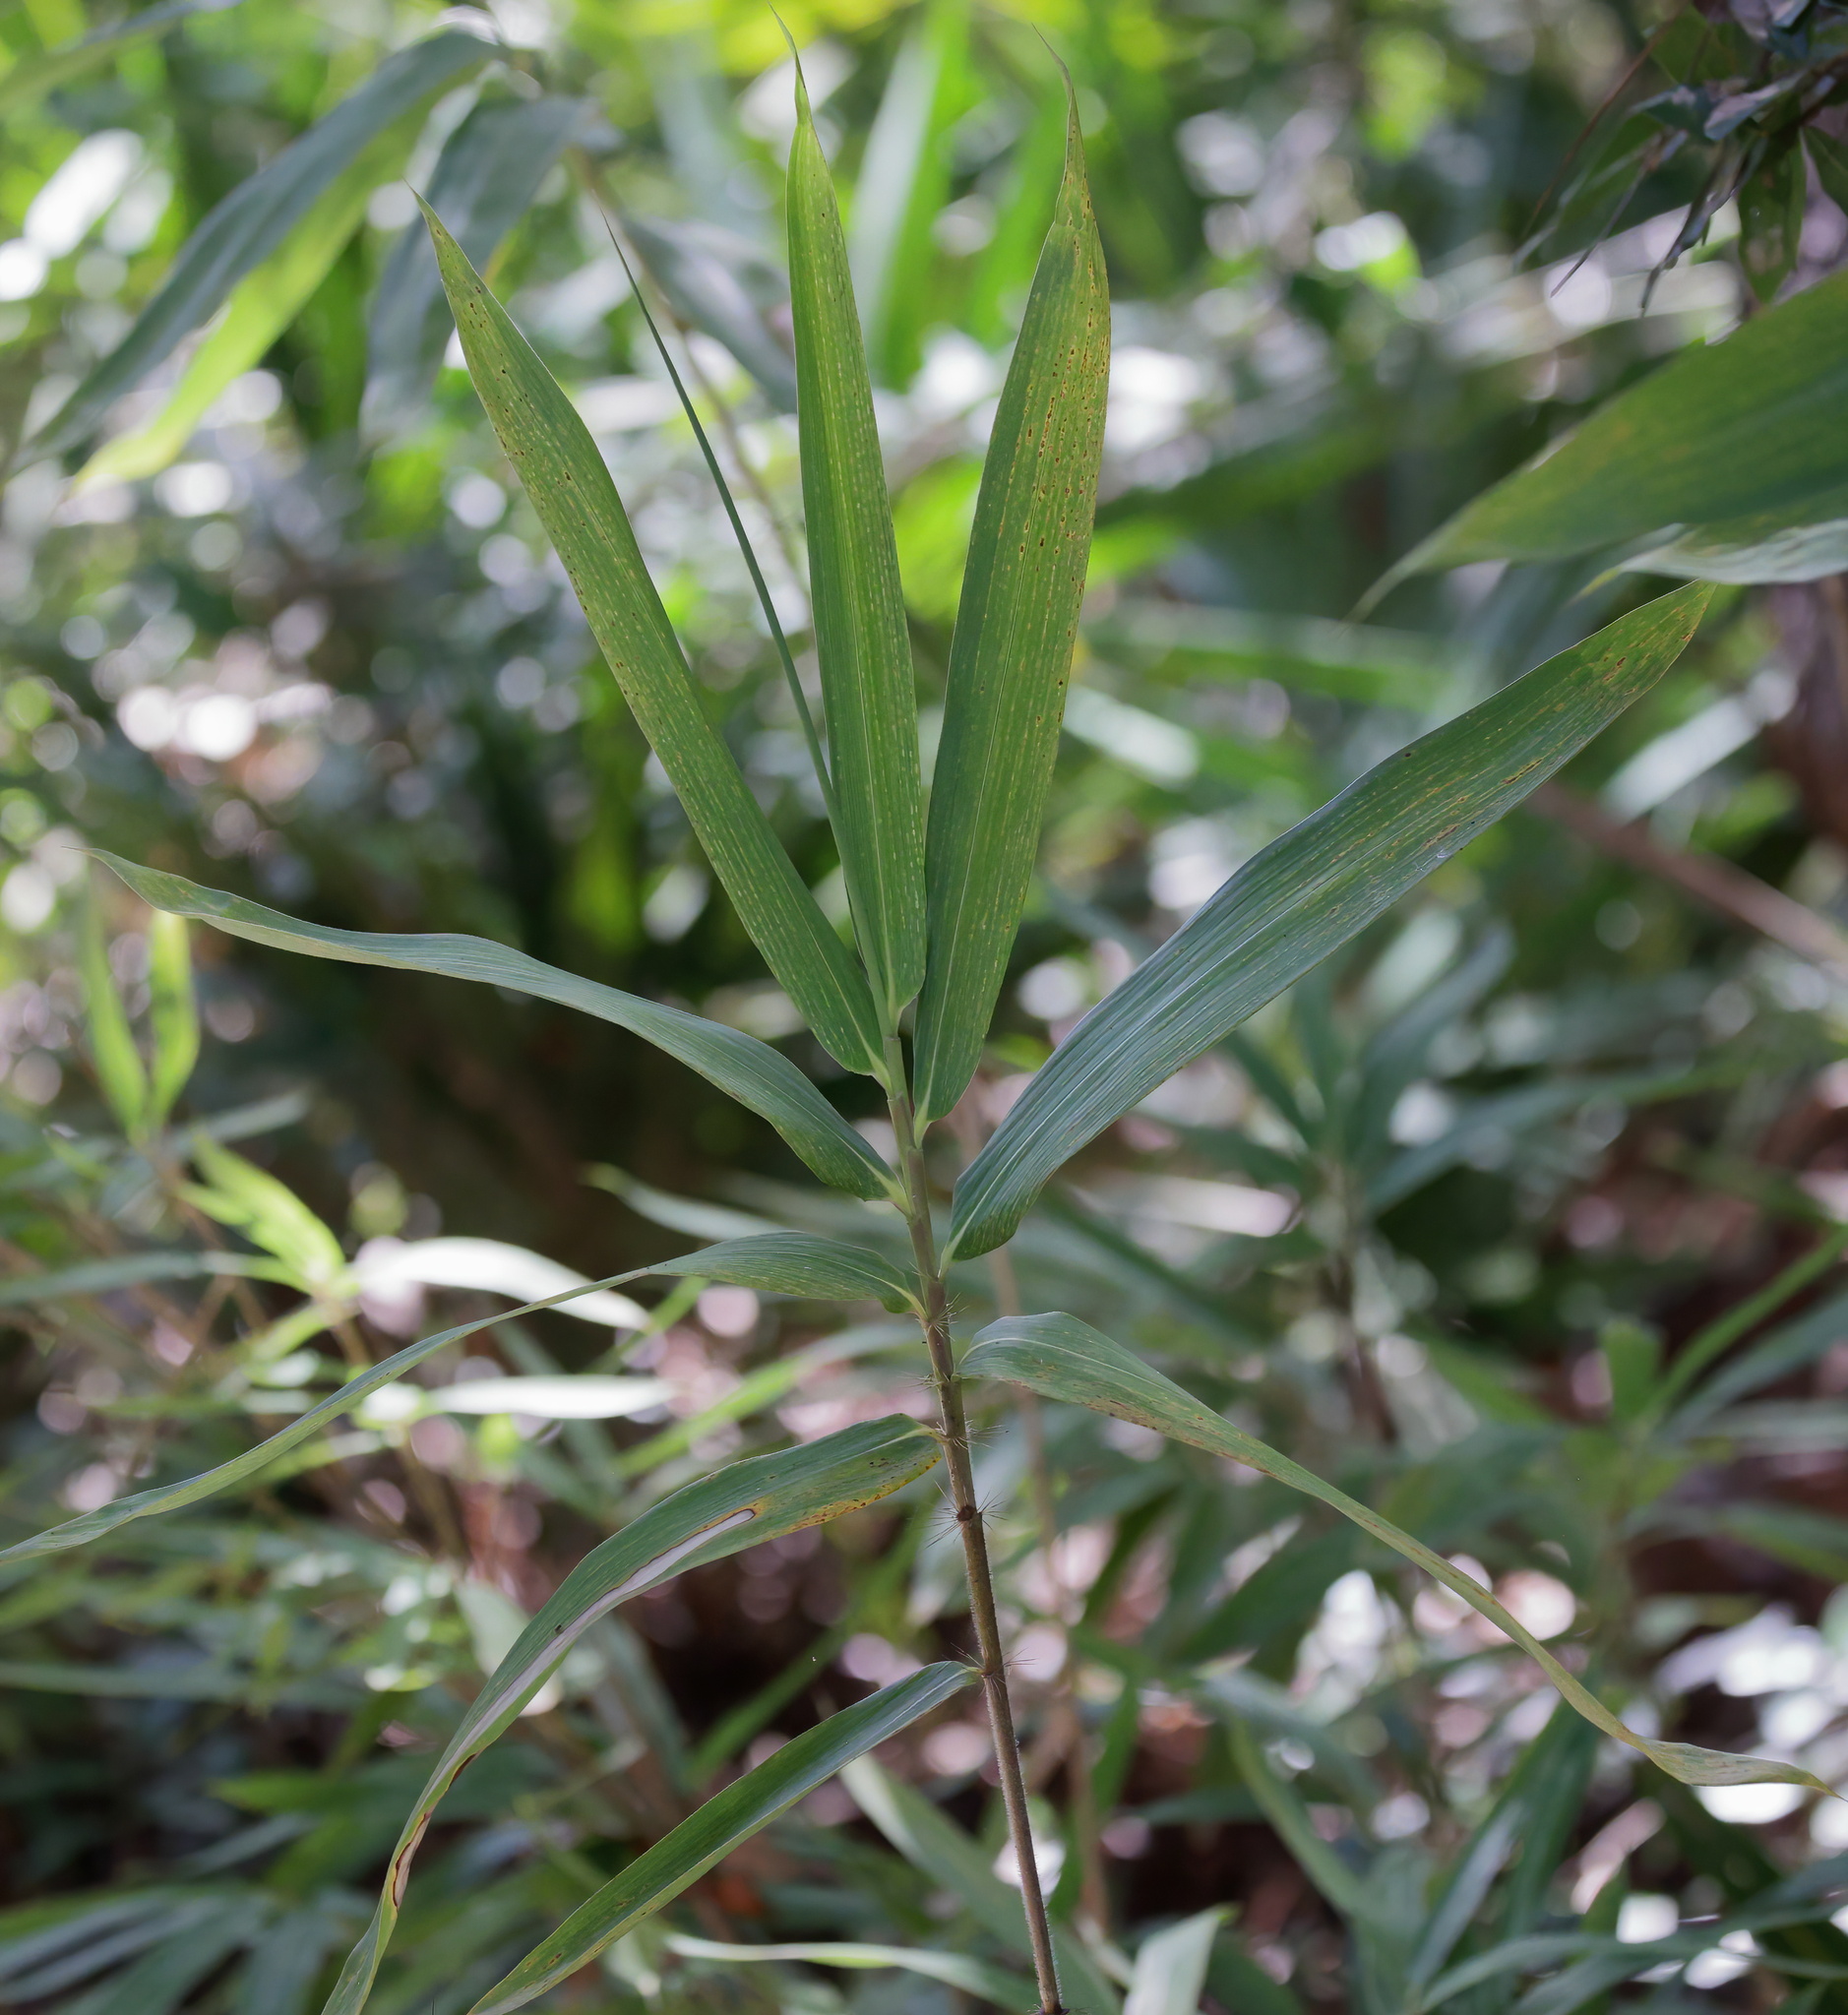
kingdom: Plantae
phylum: Tracheophyta
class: Liliopsida
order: Poales
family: Poaceae
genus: Arundinaria
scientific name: Arundinaria tecta
